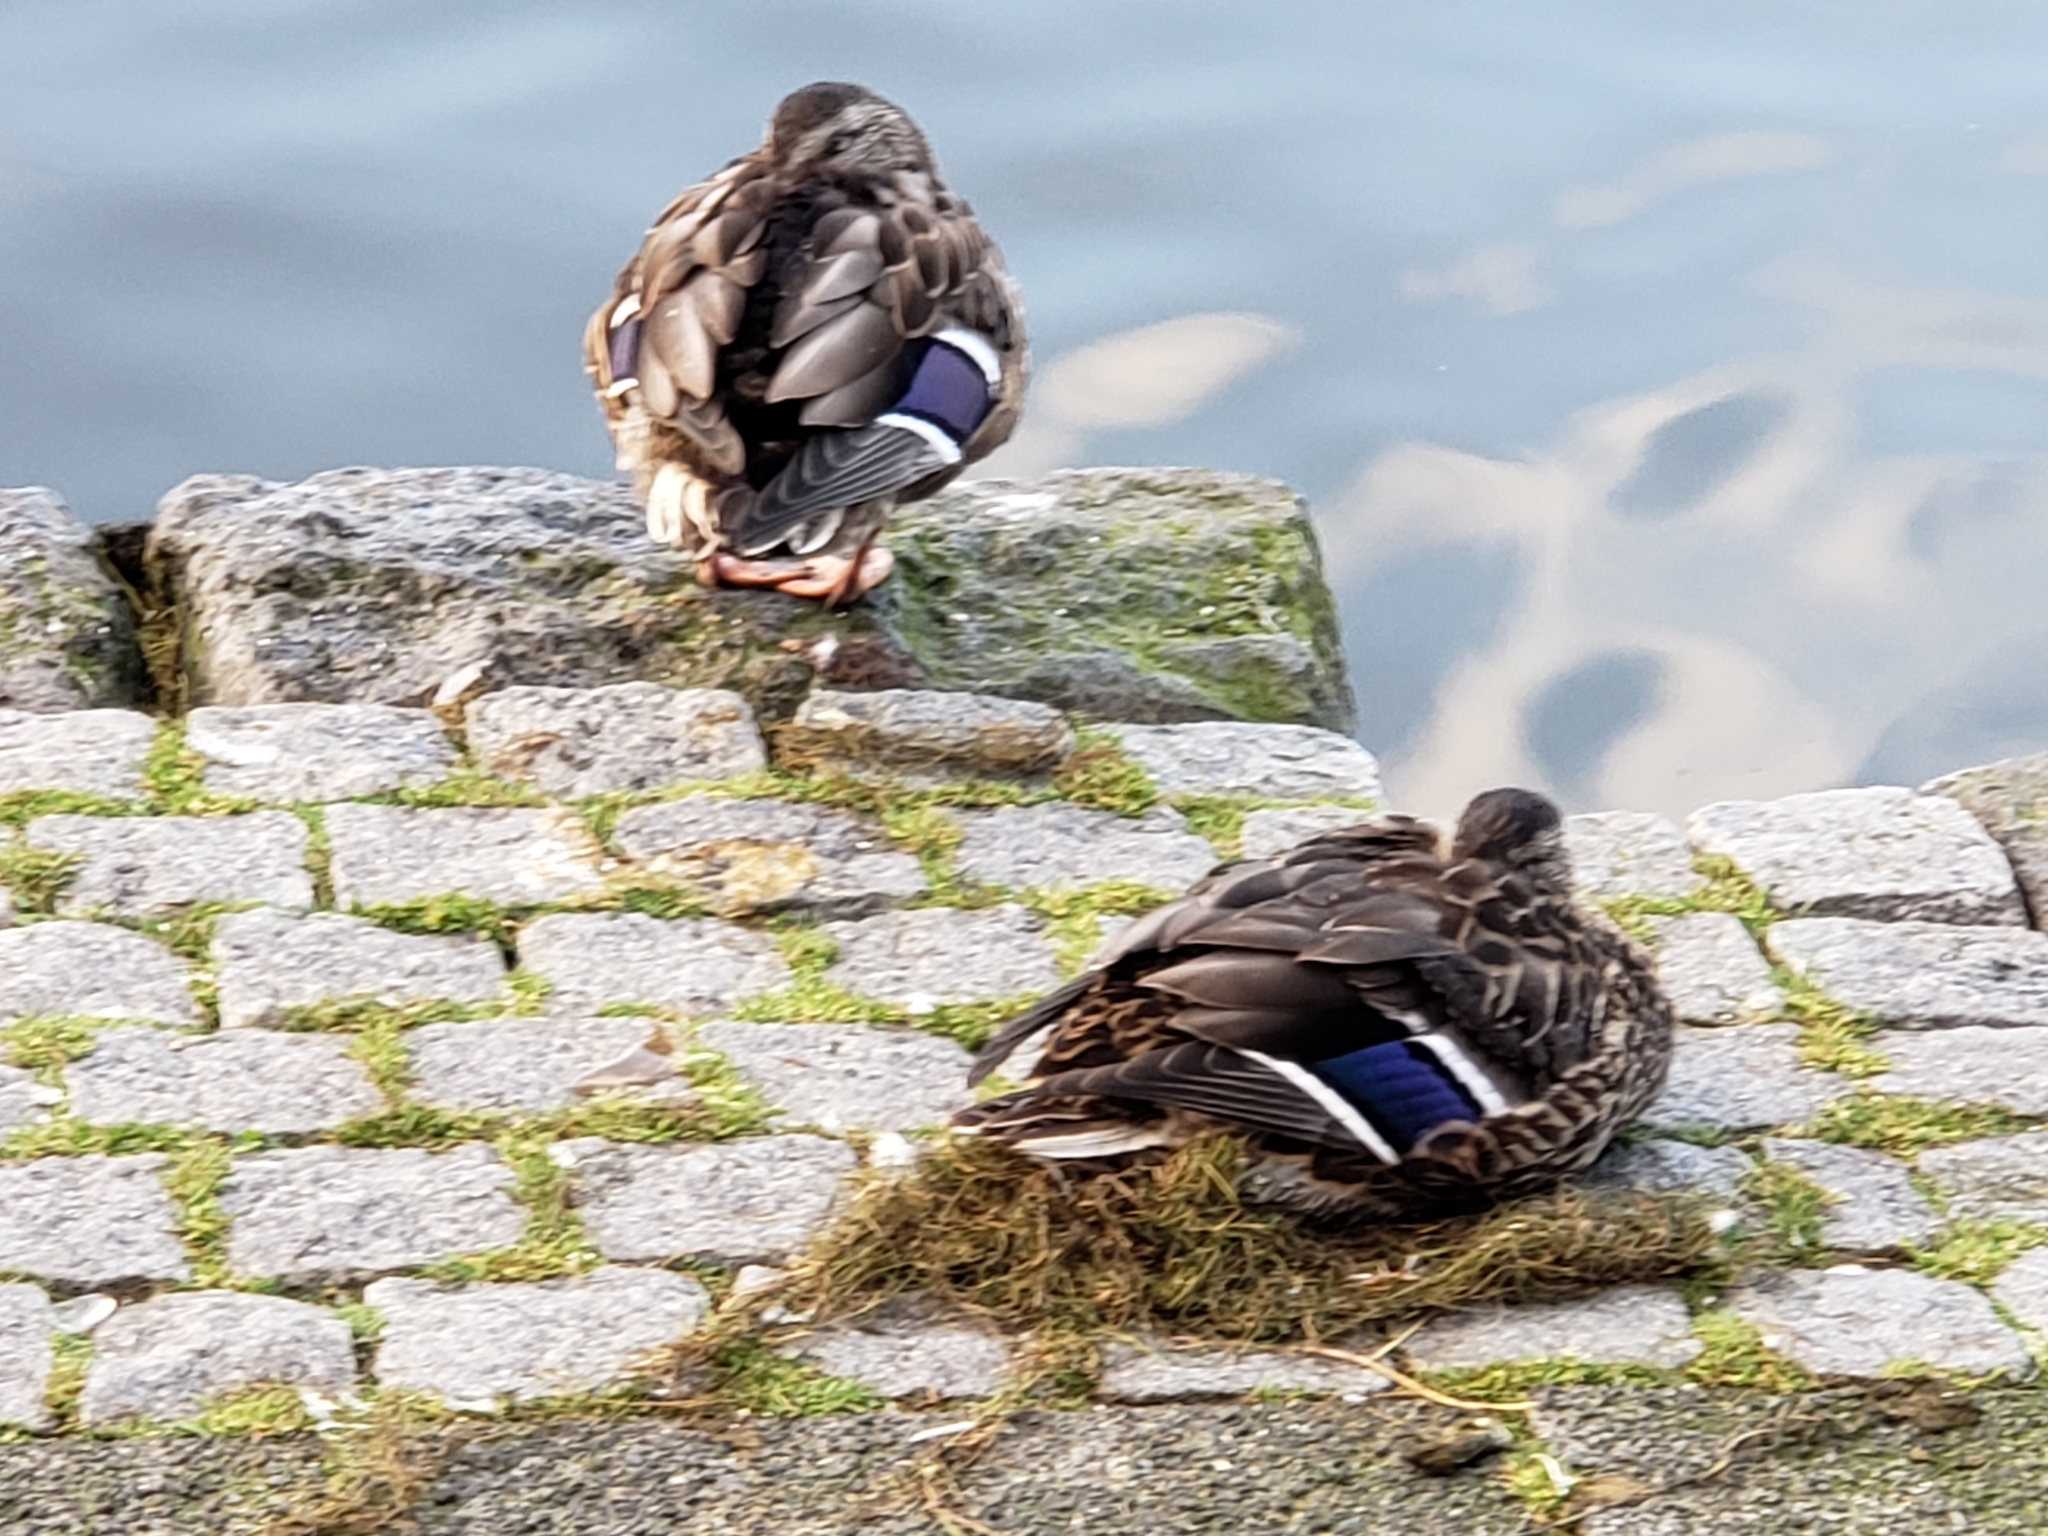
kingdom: Animalia
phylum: Chordata
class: Aves
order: Anseriformes
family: Anatidae
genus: Anas
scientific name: Anas platyrhynchos
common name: Mallard
